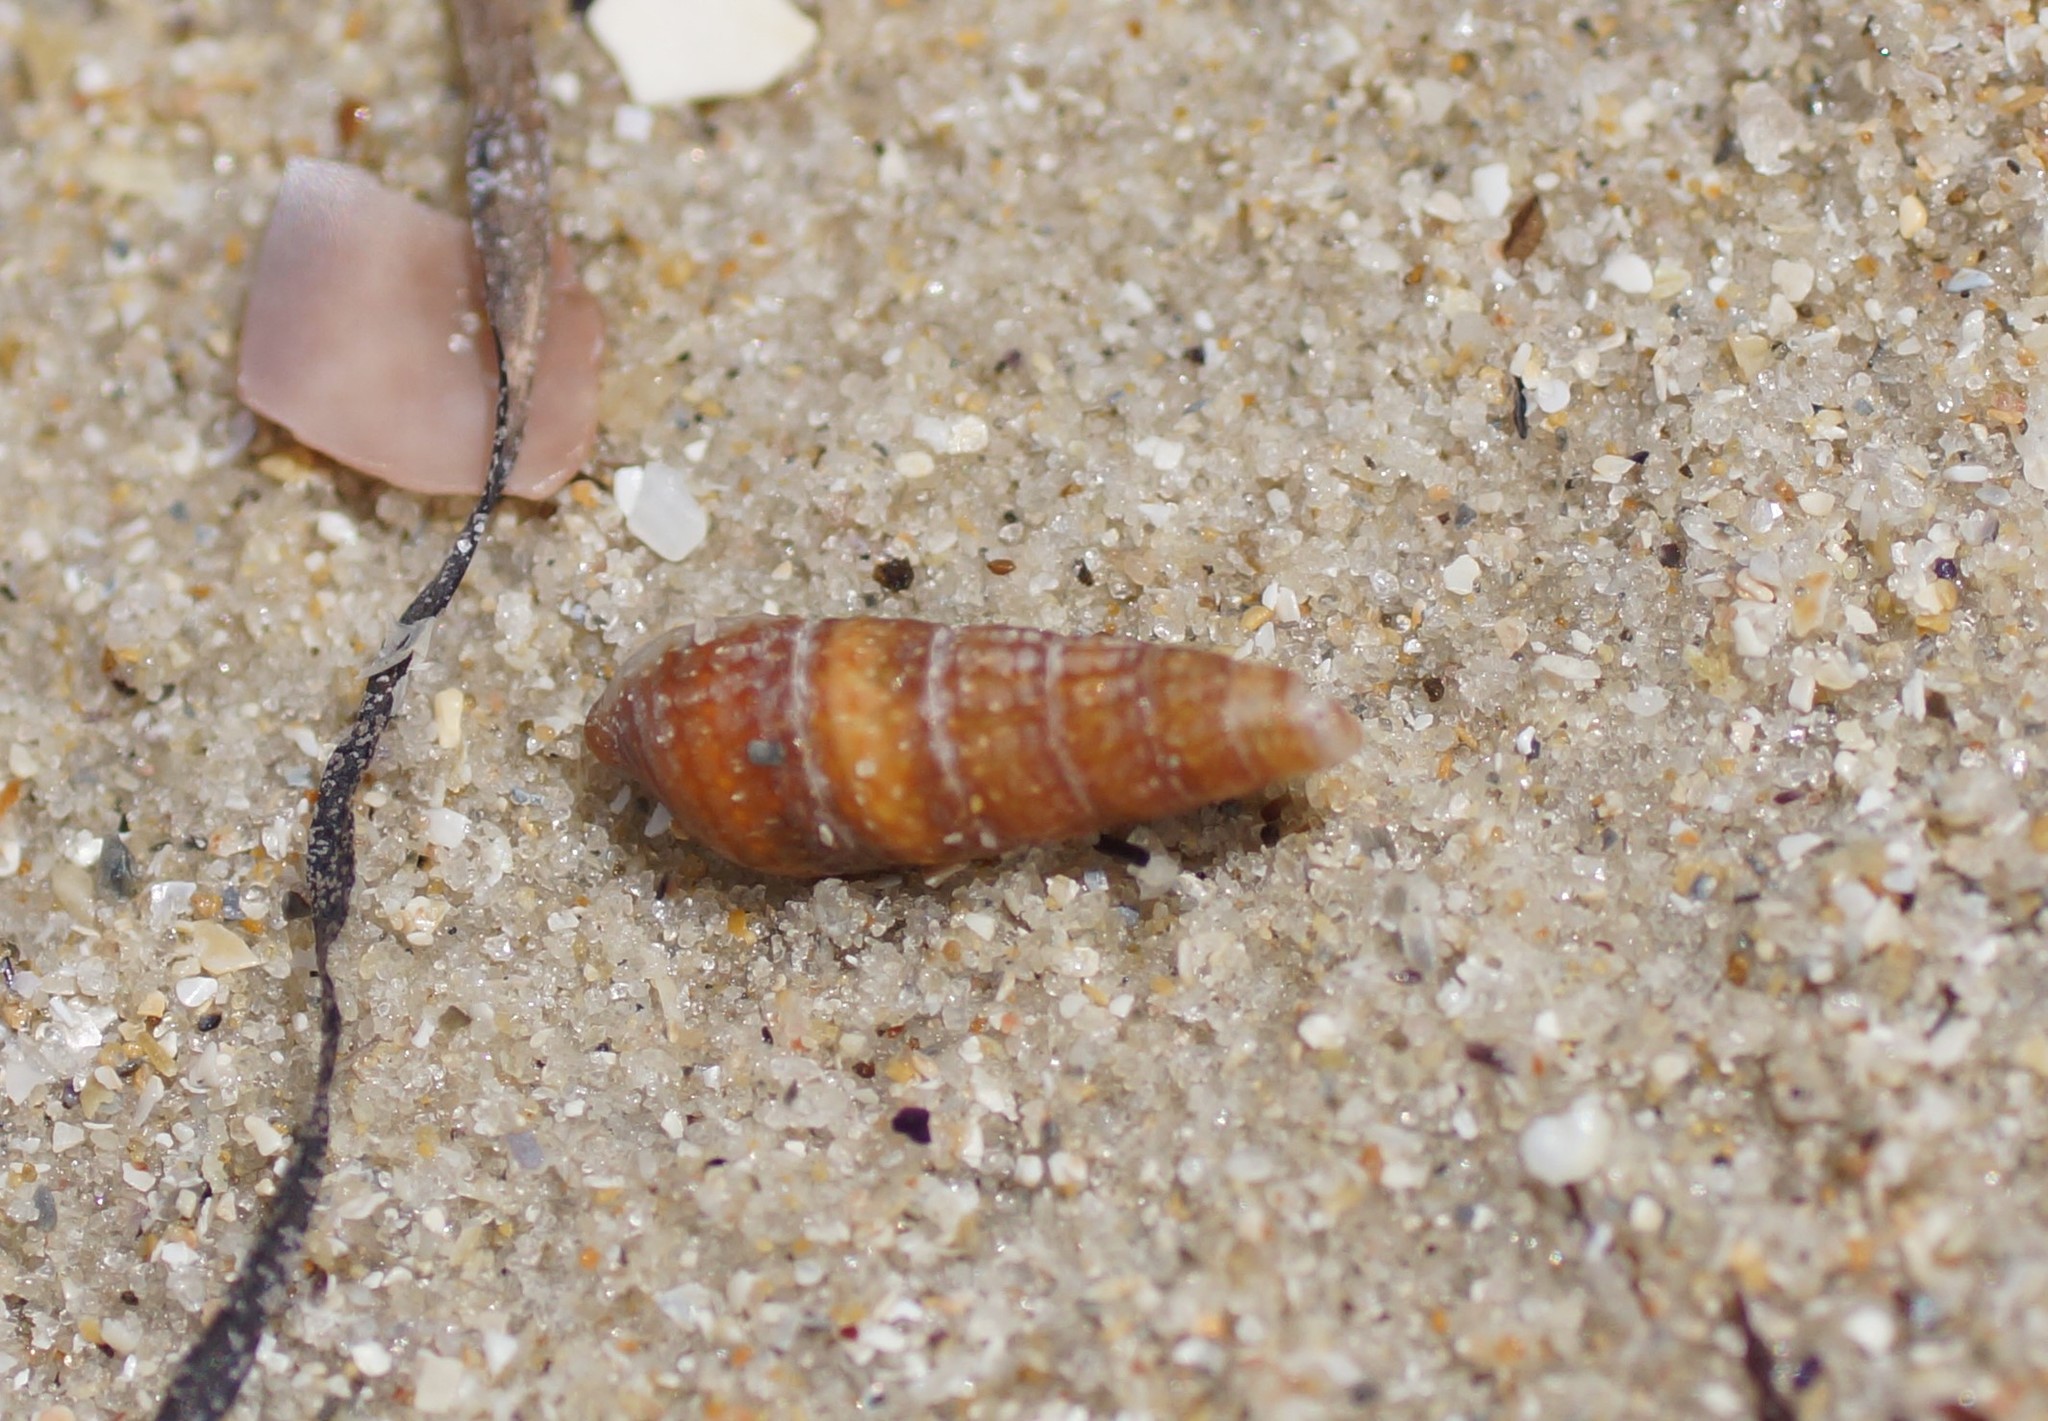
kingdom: Animalia
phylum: Mollusca
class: Gastropoda
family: Cerithiidae
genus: Cacozeliana
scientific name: Cacozeliana granarium
